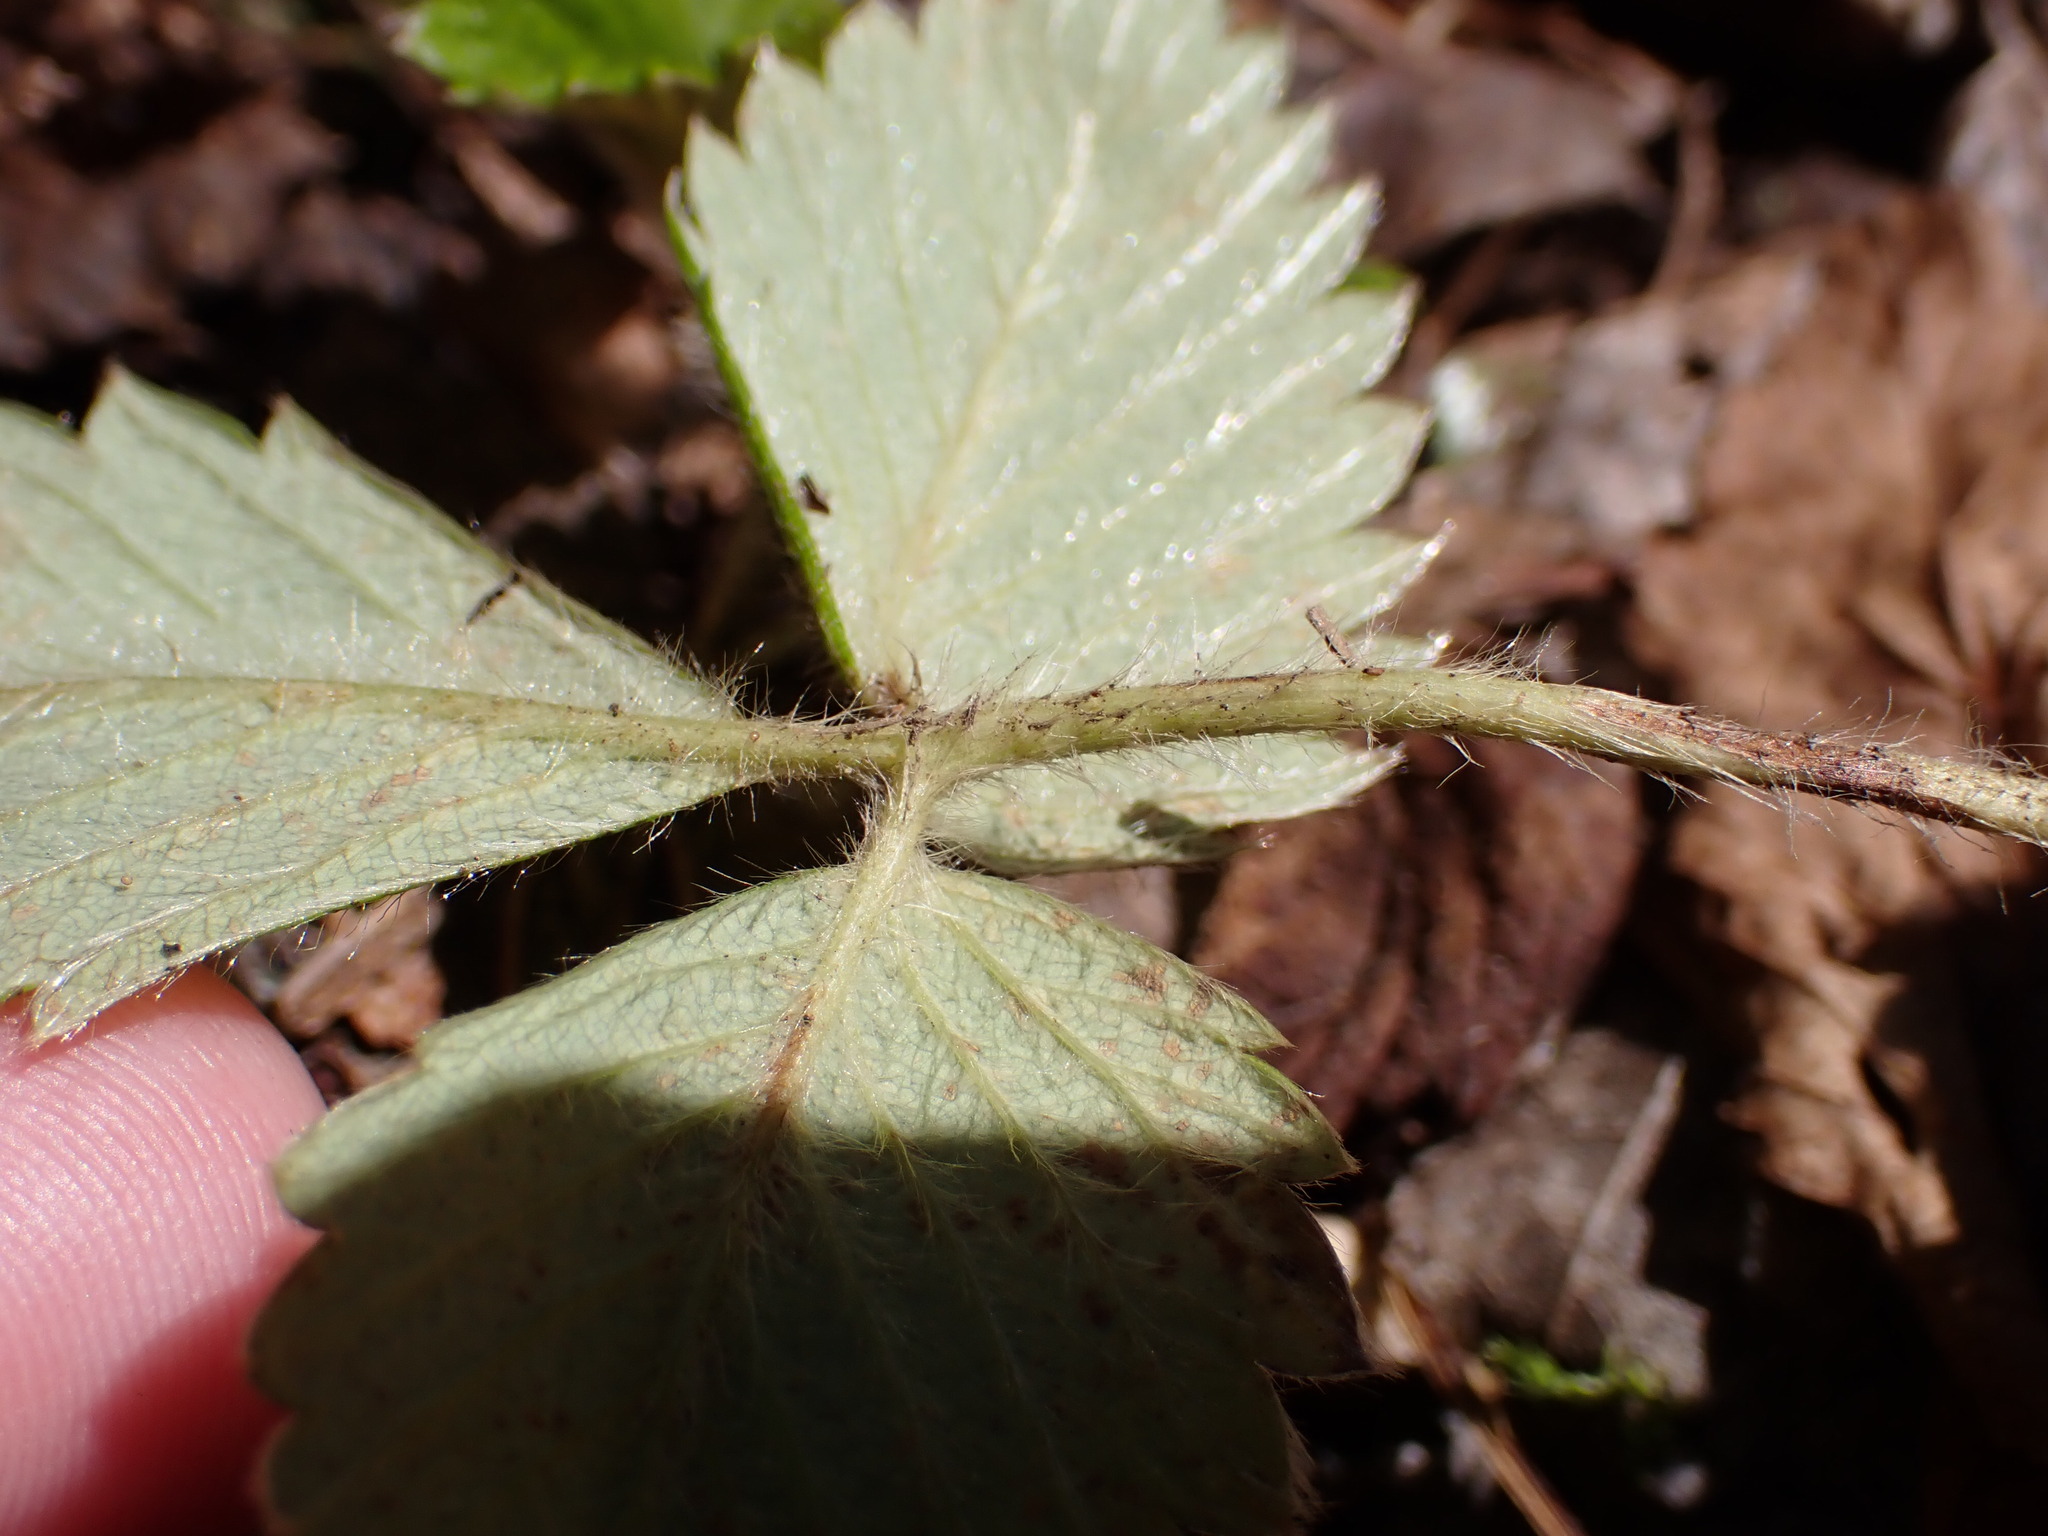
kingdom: Plantae
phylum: Tracheophyta
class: Magnoliopsida
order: Rosales
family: Rosaceae
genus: Fragaria
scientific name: Fragaria vesca
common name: Wild strawberry
